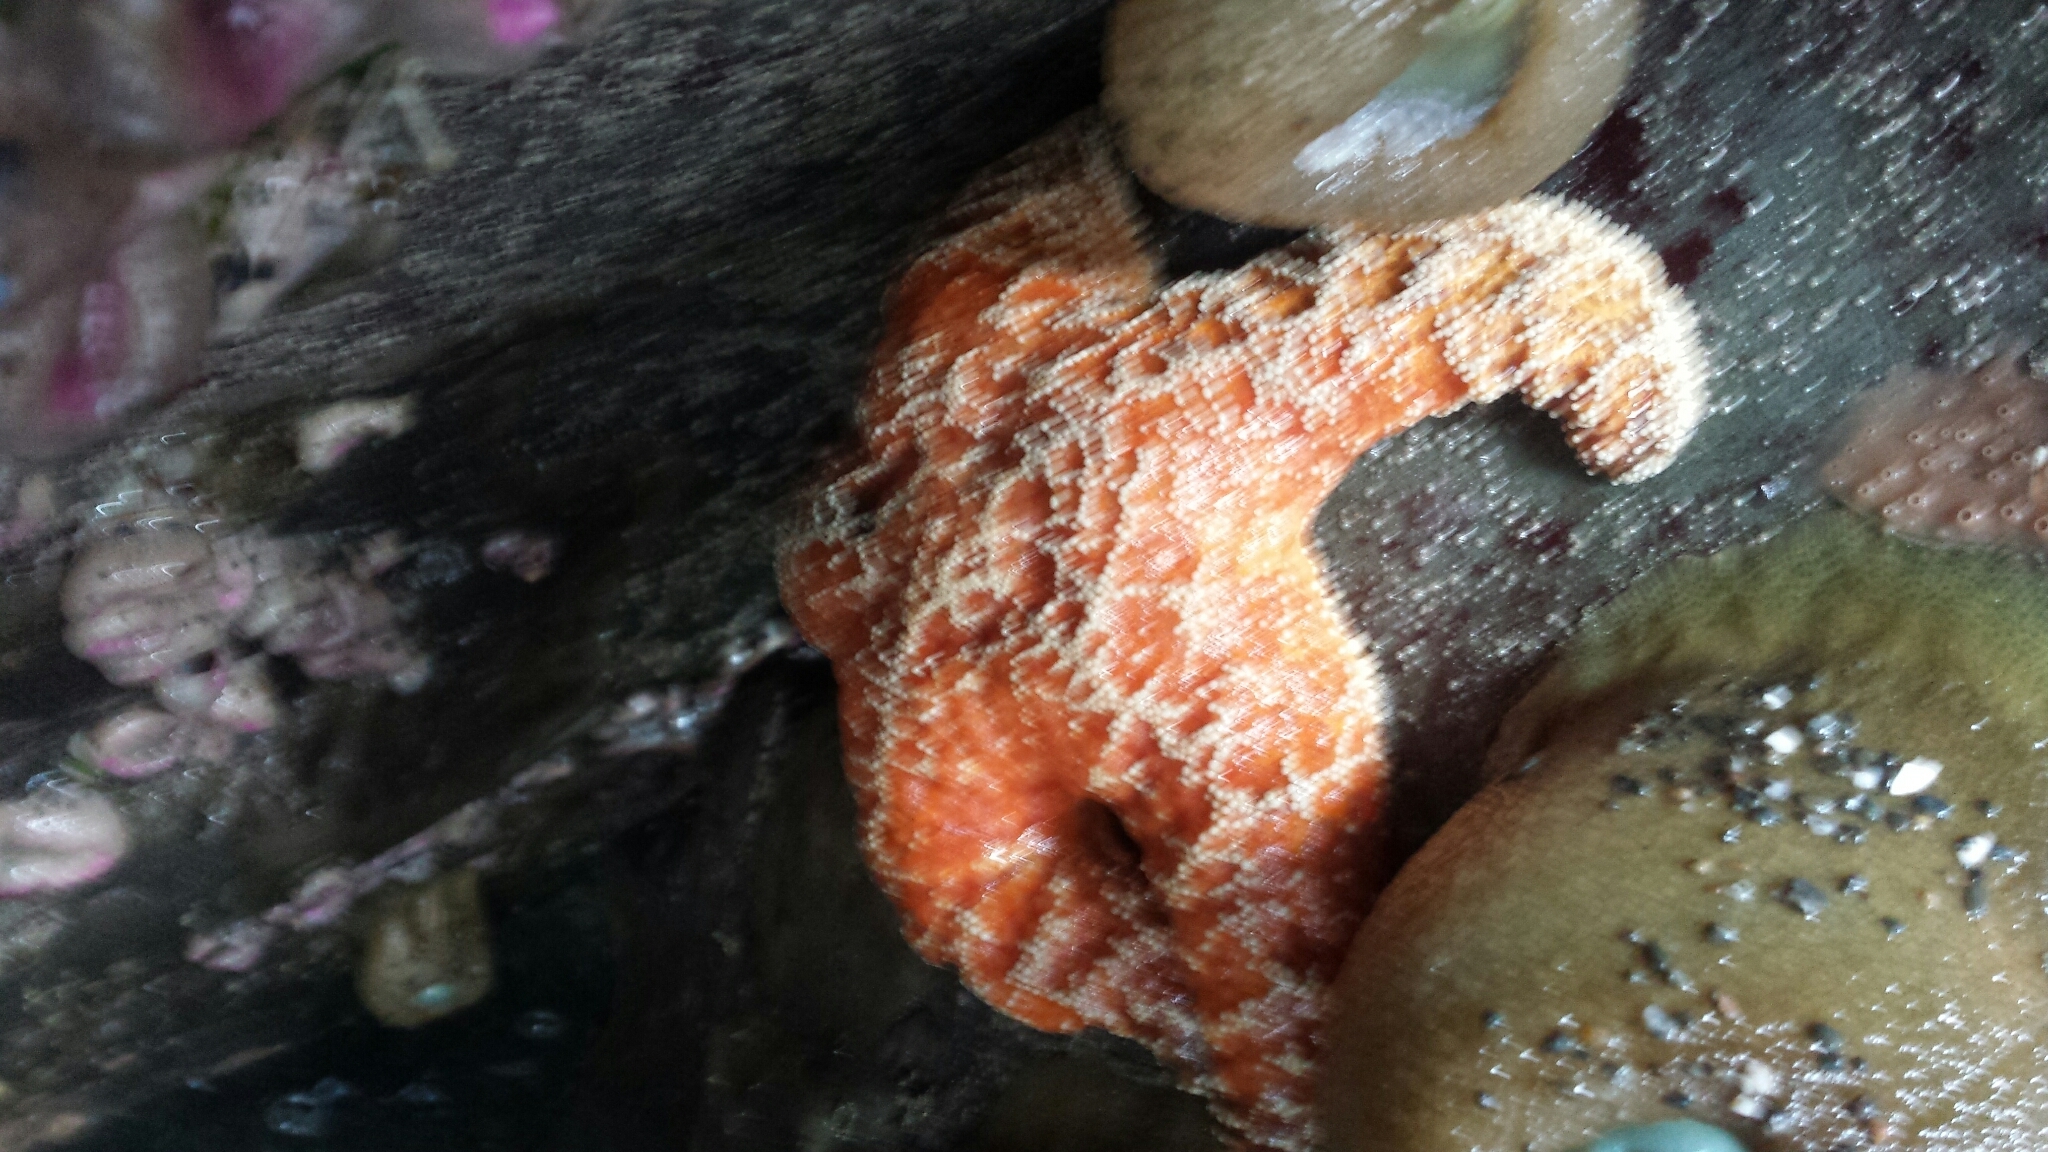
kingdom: Animalia
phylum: Echinodermata
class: Asteroidea
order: Forcipulatida
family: Asteriidae
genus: Pisaster
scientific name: Pisaster ochraceus
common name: Ochre stars
